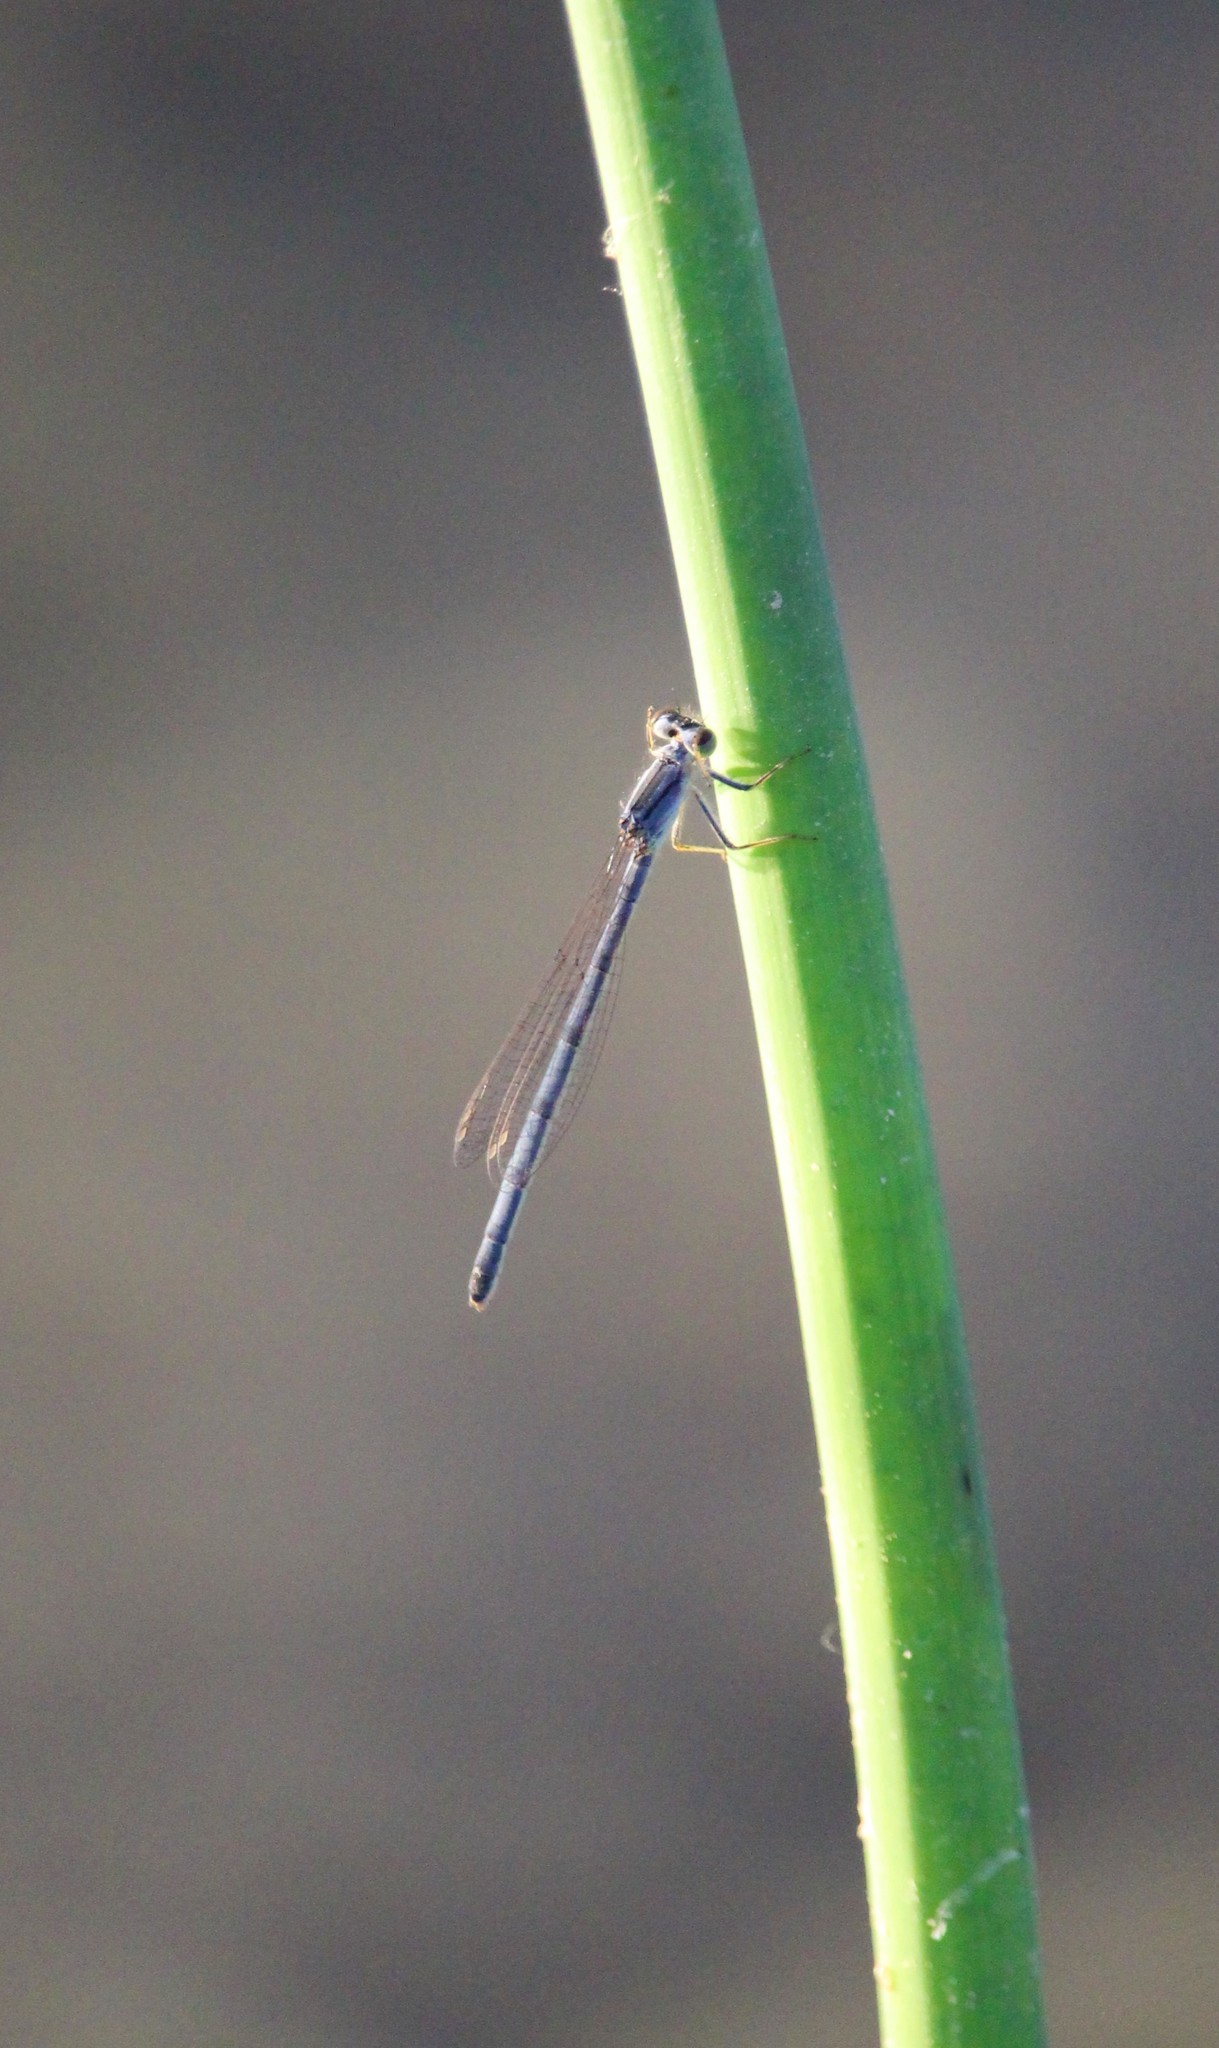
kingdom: Animalia
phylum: Arthropoda
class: Insecta
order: Odonata
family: Coenagrionidae
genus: Ischnura
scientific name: Ischnura verticalis
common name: Eastern forktail
